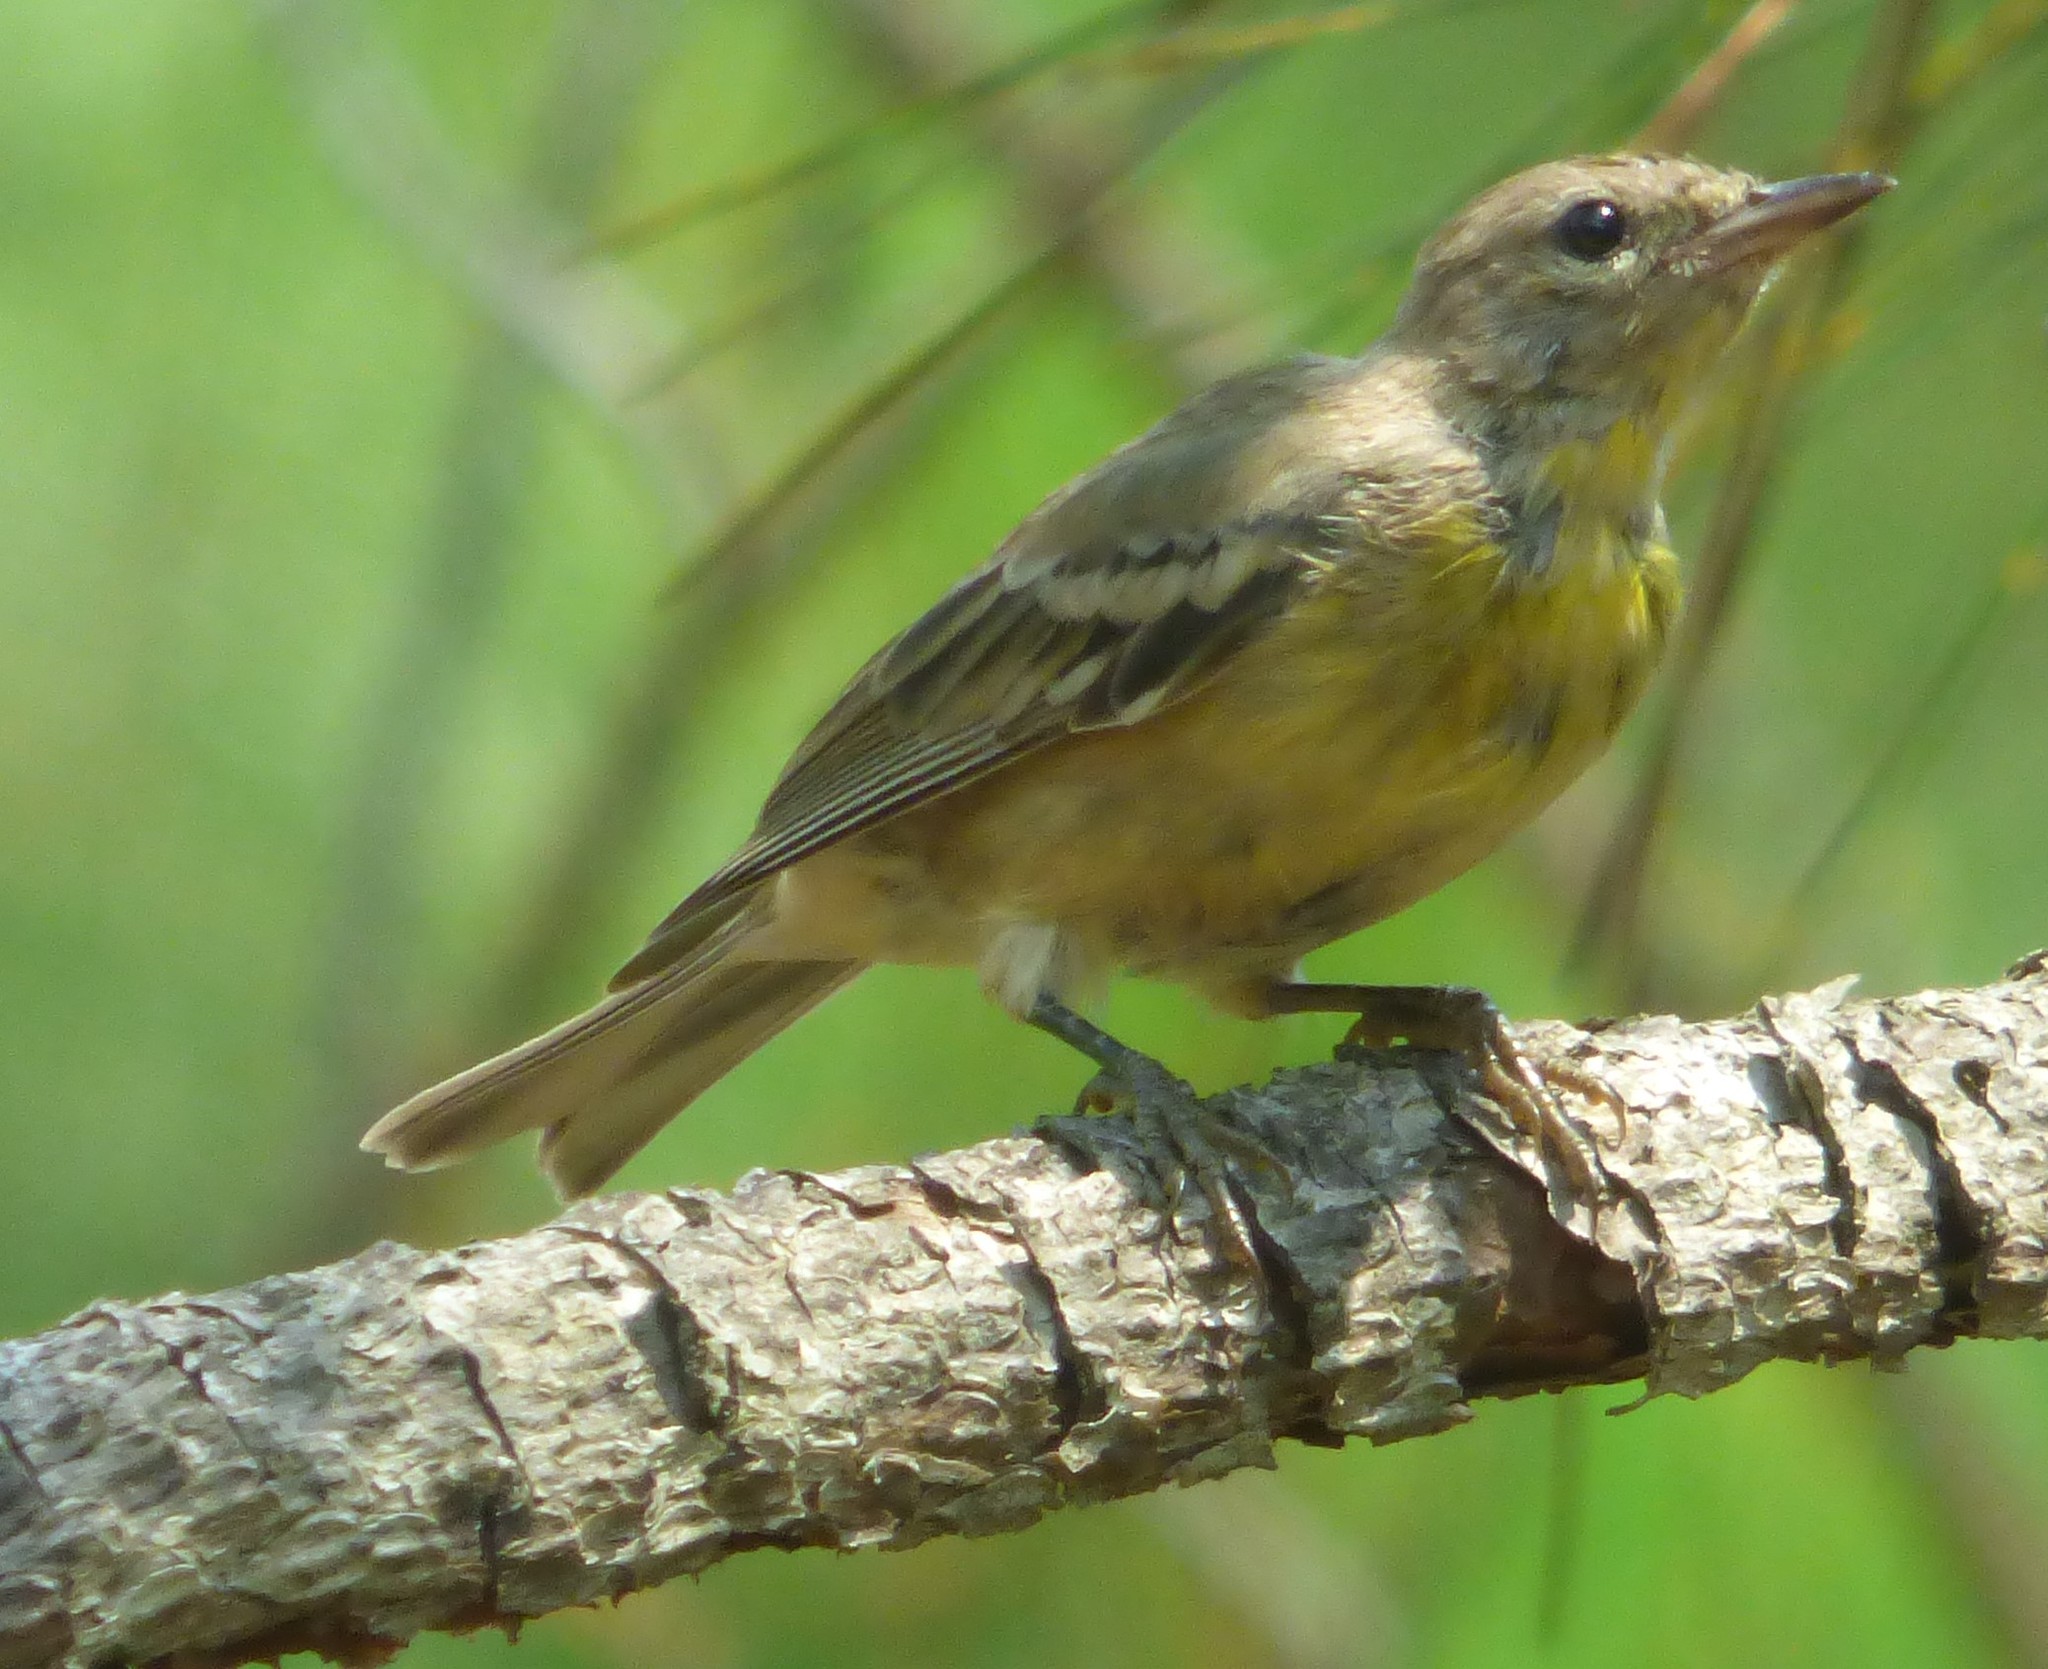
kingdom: Animalia
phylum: Chordata
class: Aves
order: Passeriformes
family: Parulidae
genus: Setophaga
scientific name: Setophaga pinus
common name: Pine warbler
